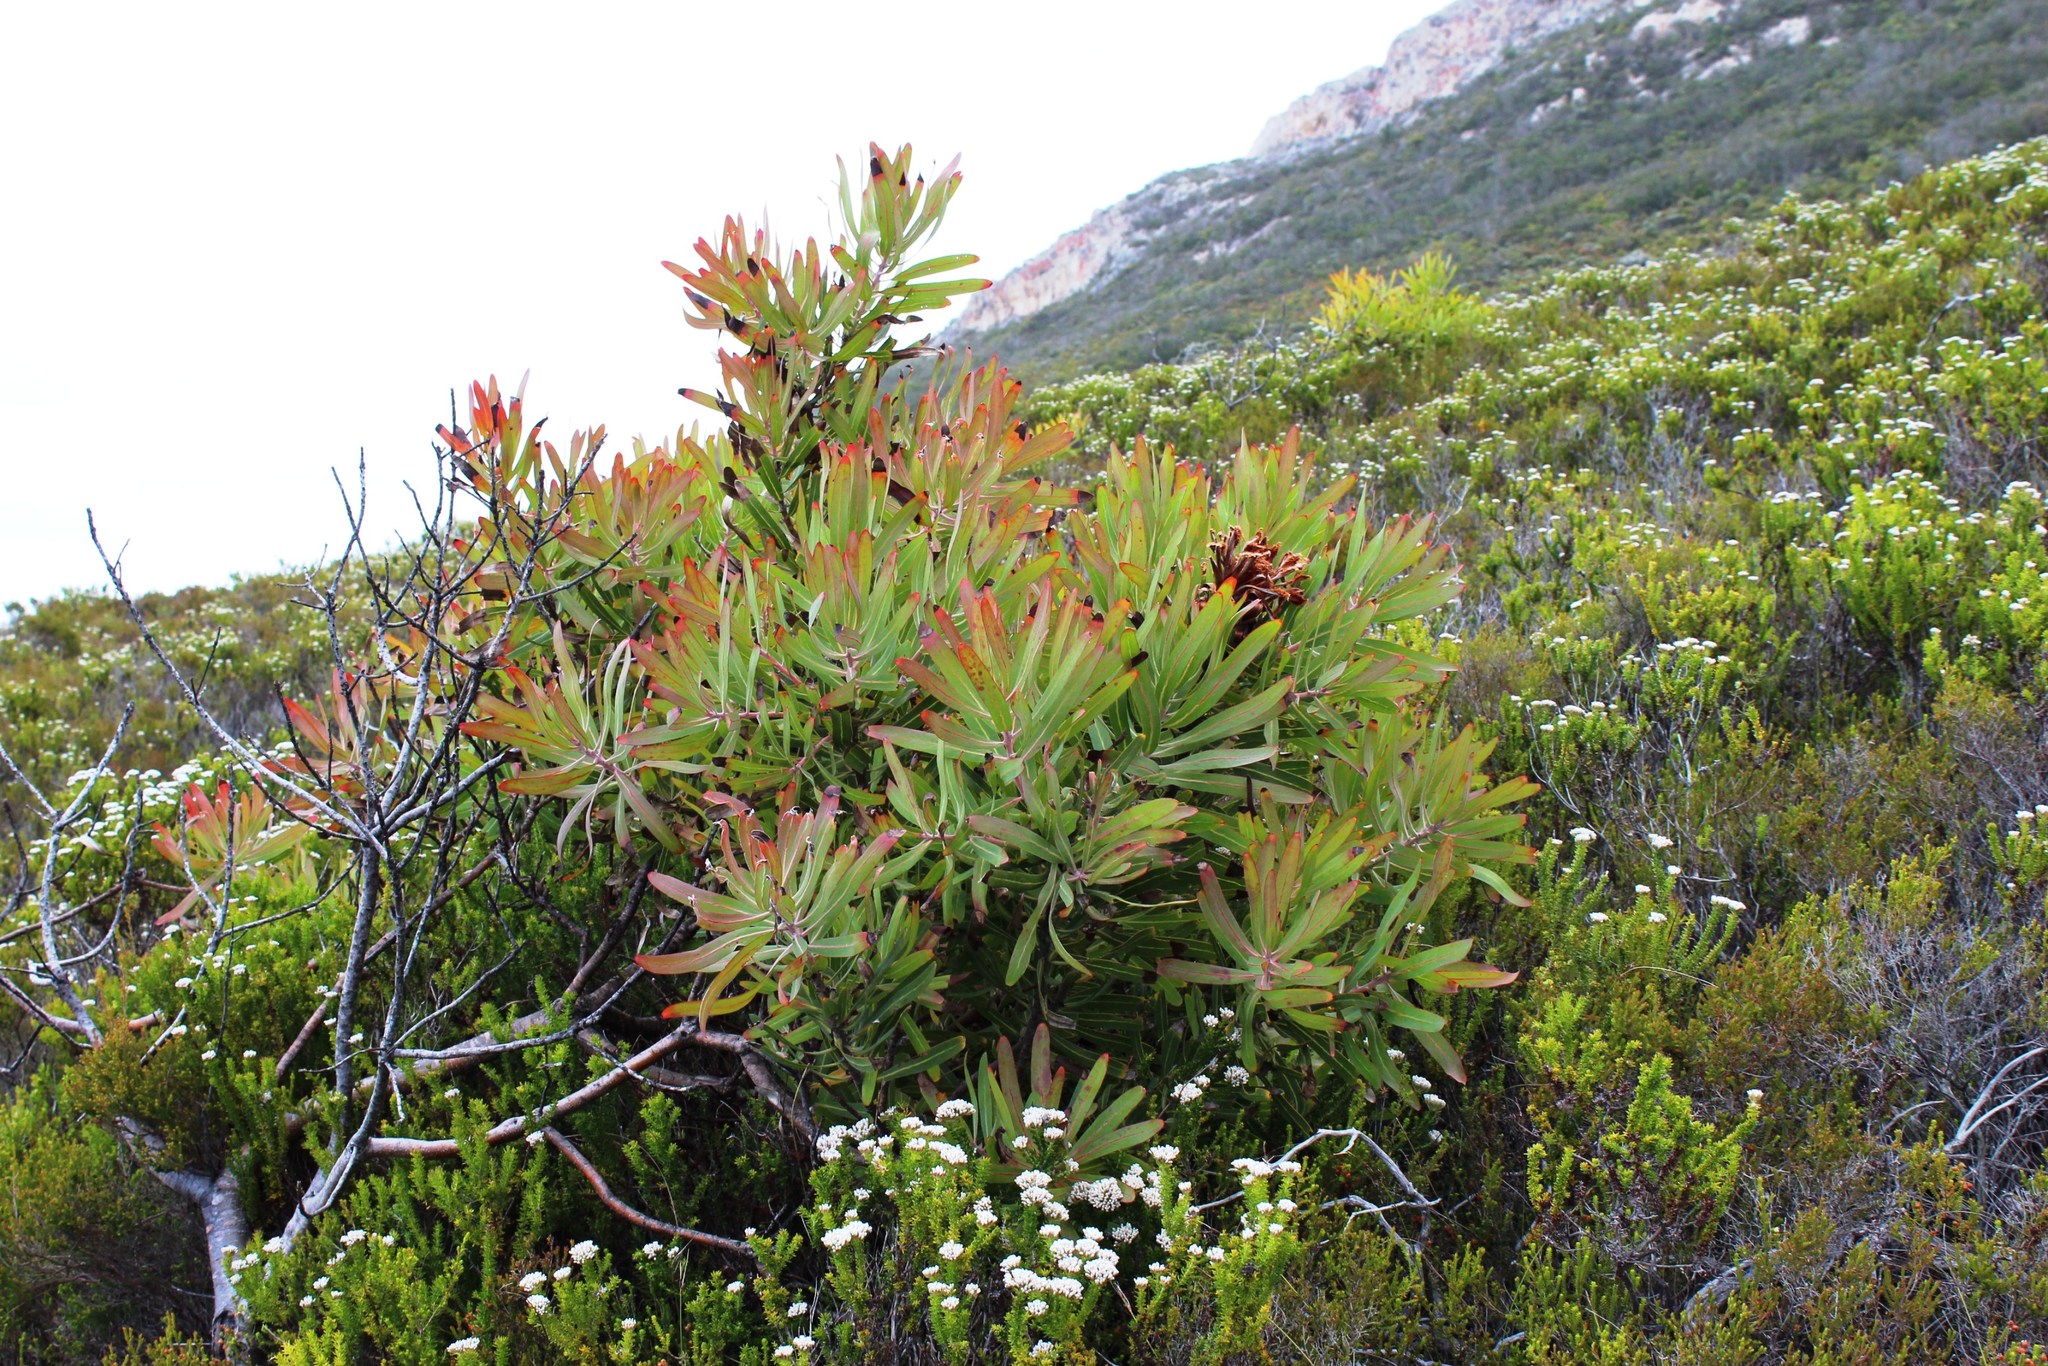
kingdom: Plantae
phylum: Tracheophyta
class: Magnoliopsida
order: Proteales
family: Proteaceae
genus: Protea
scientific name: Protea neriifolia
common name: Blue sugarbush
